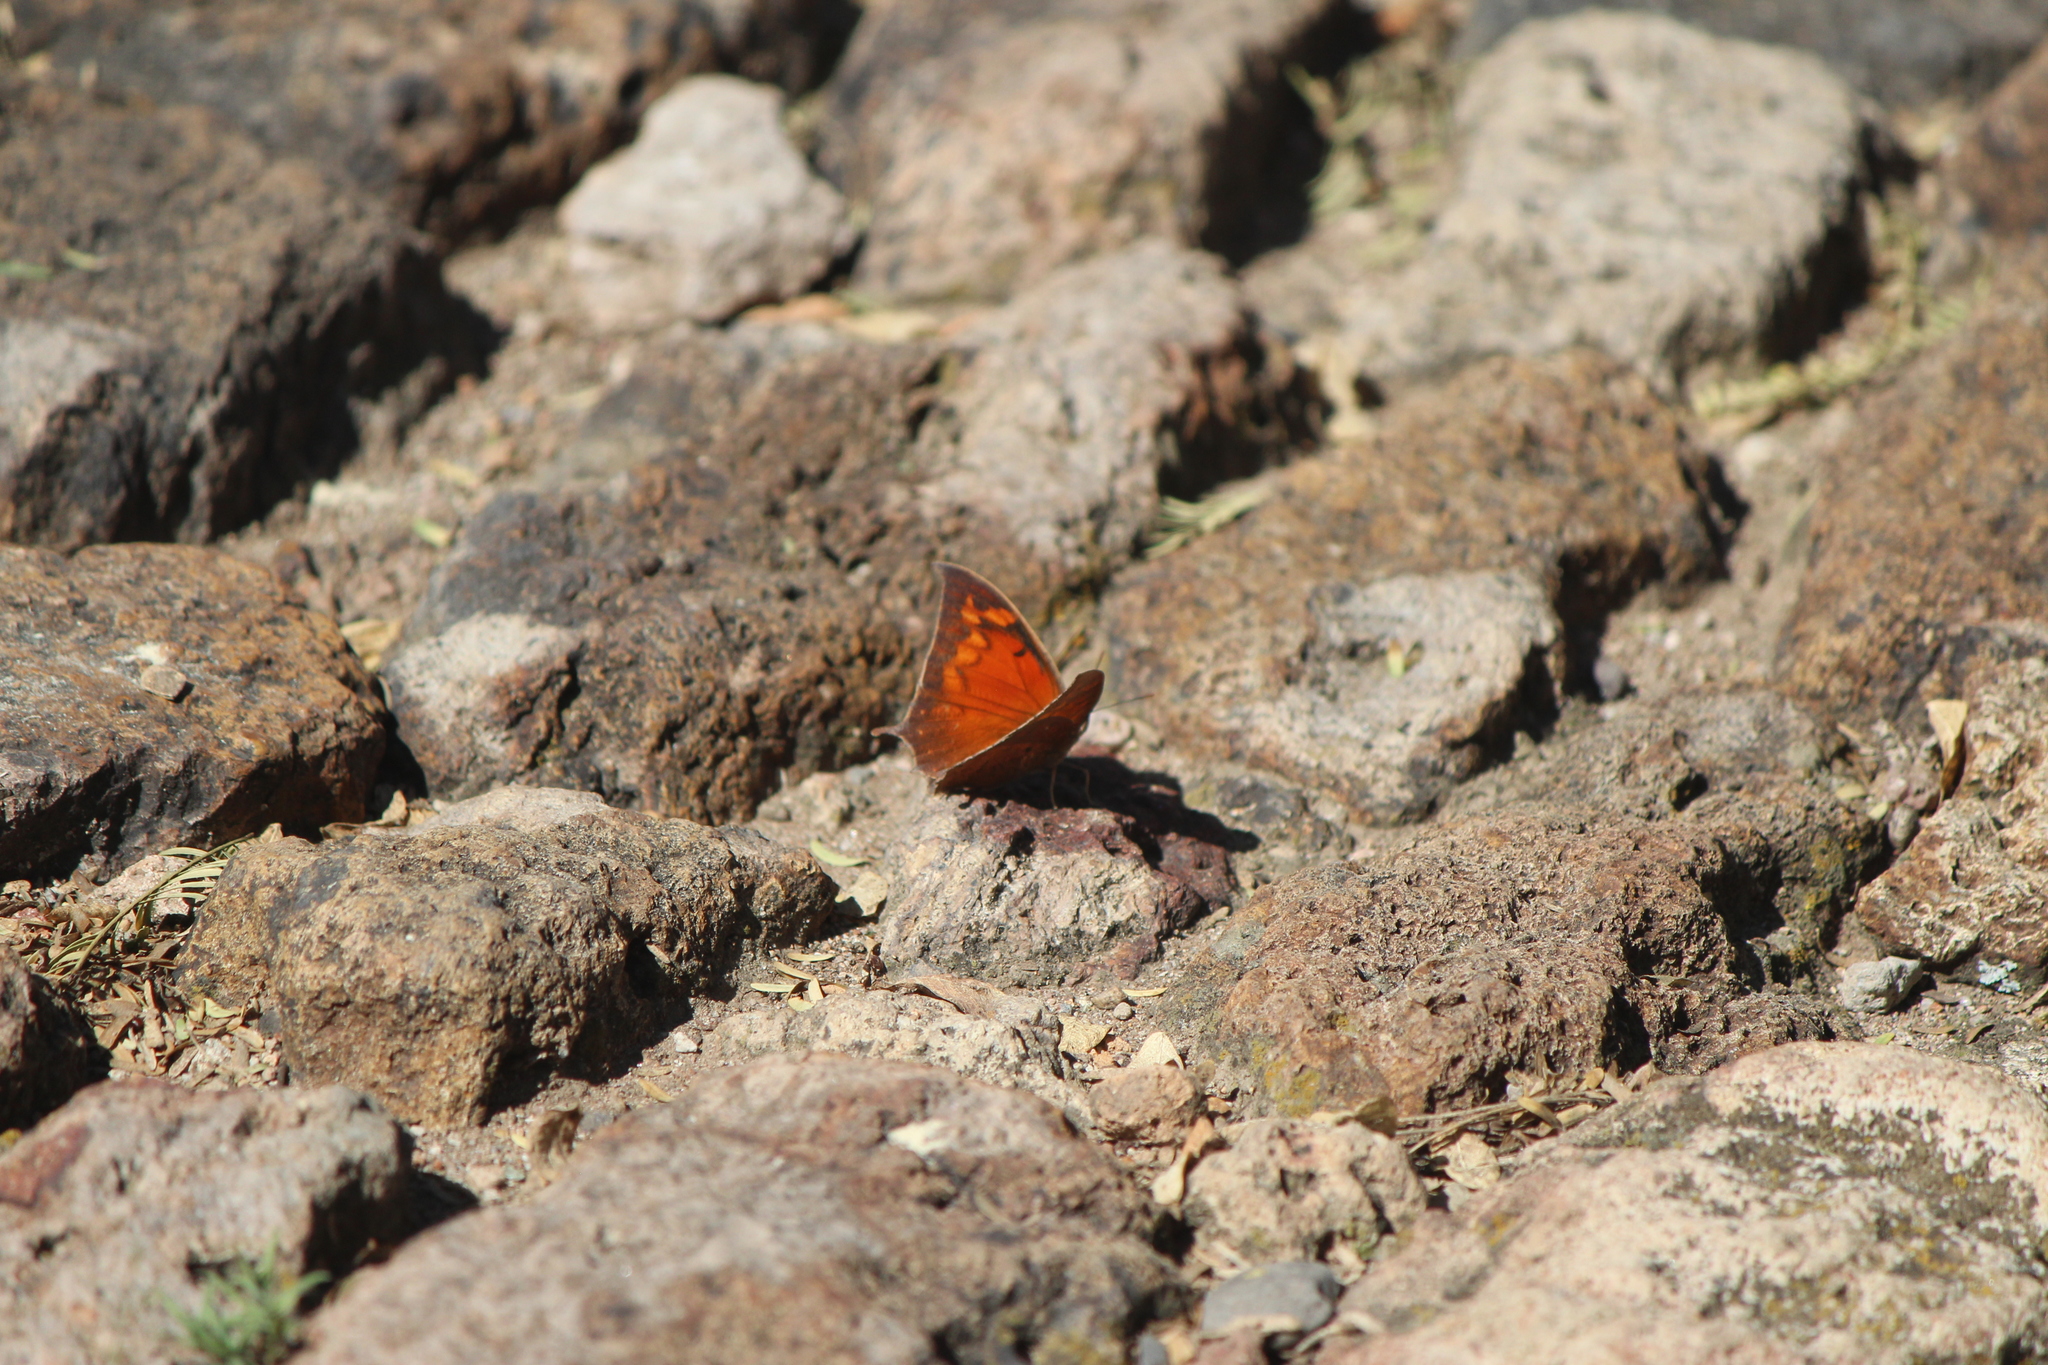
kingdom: Animalia
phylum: Arthropoda
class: Insecta
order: Lepidoptera
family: Nymphalidae
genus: Anaea
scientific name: Anaea aidea
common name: Tropical leafwing
